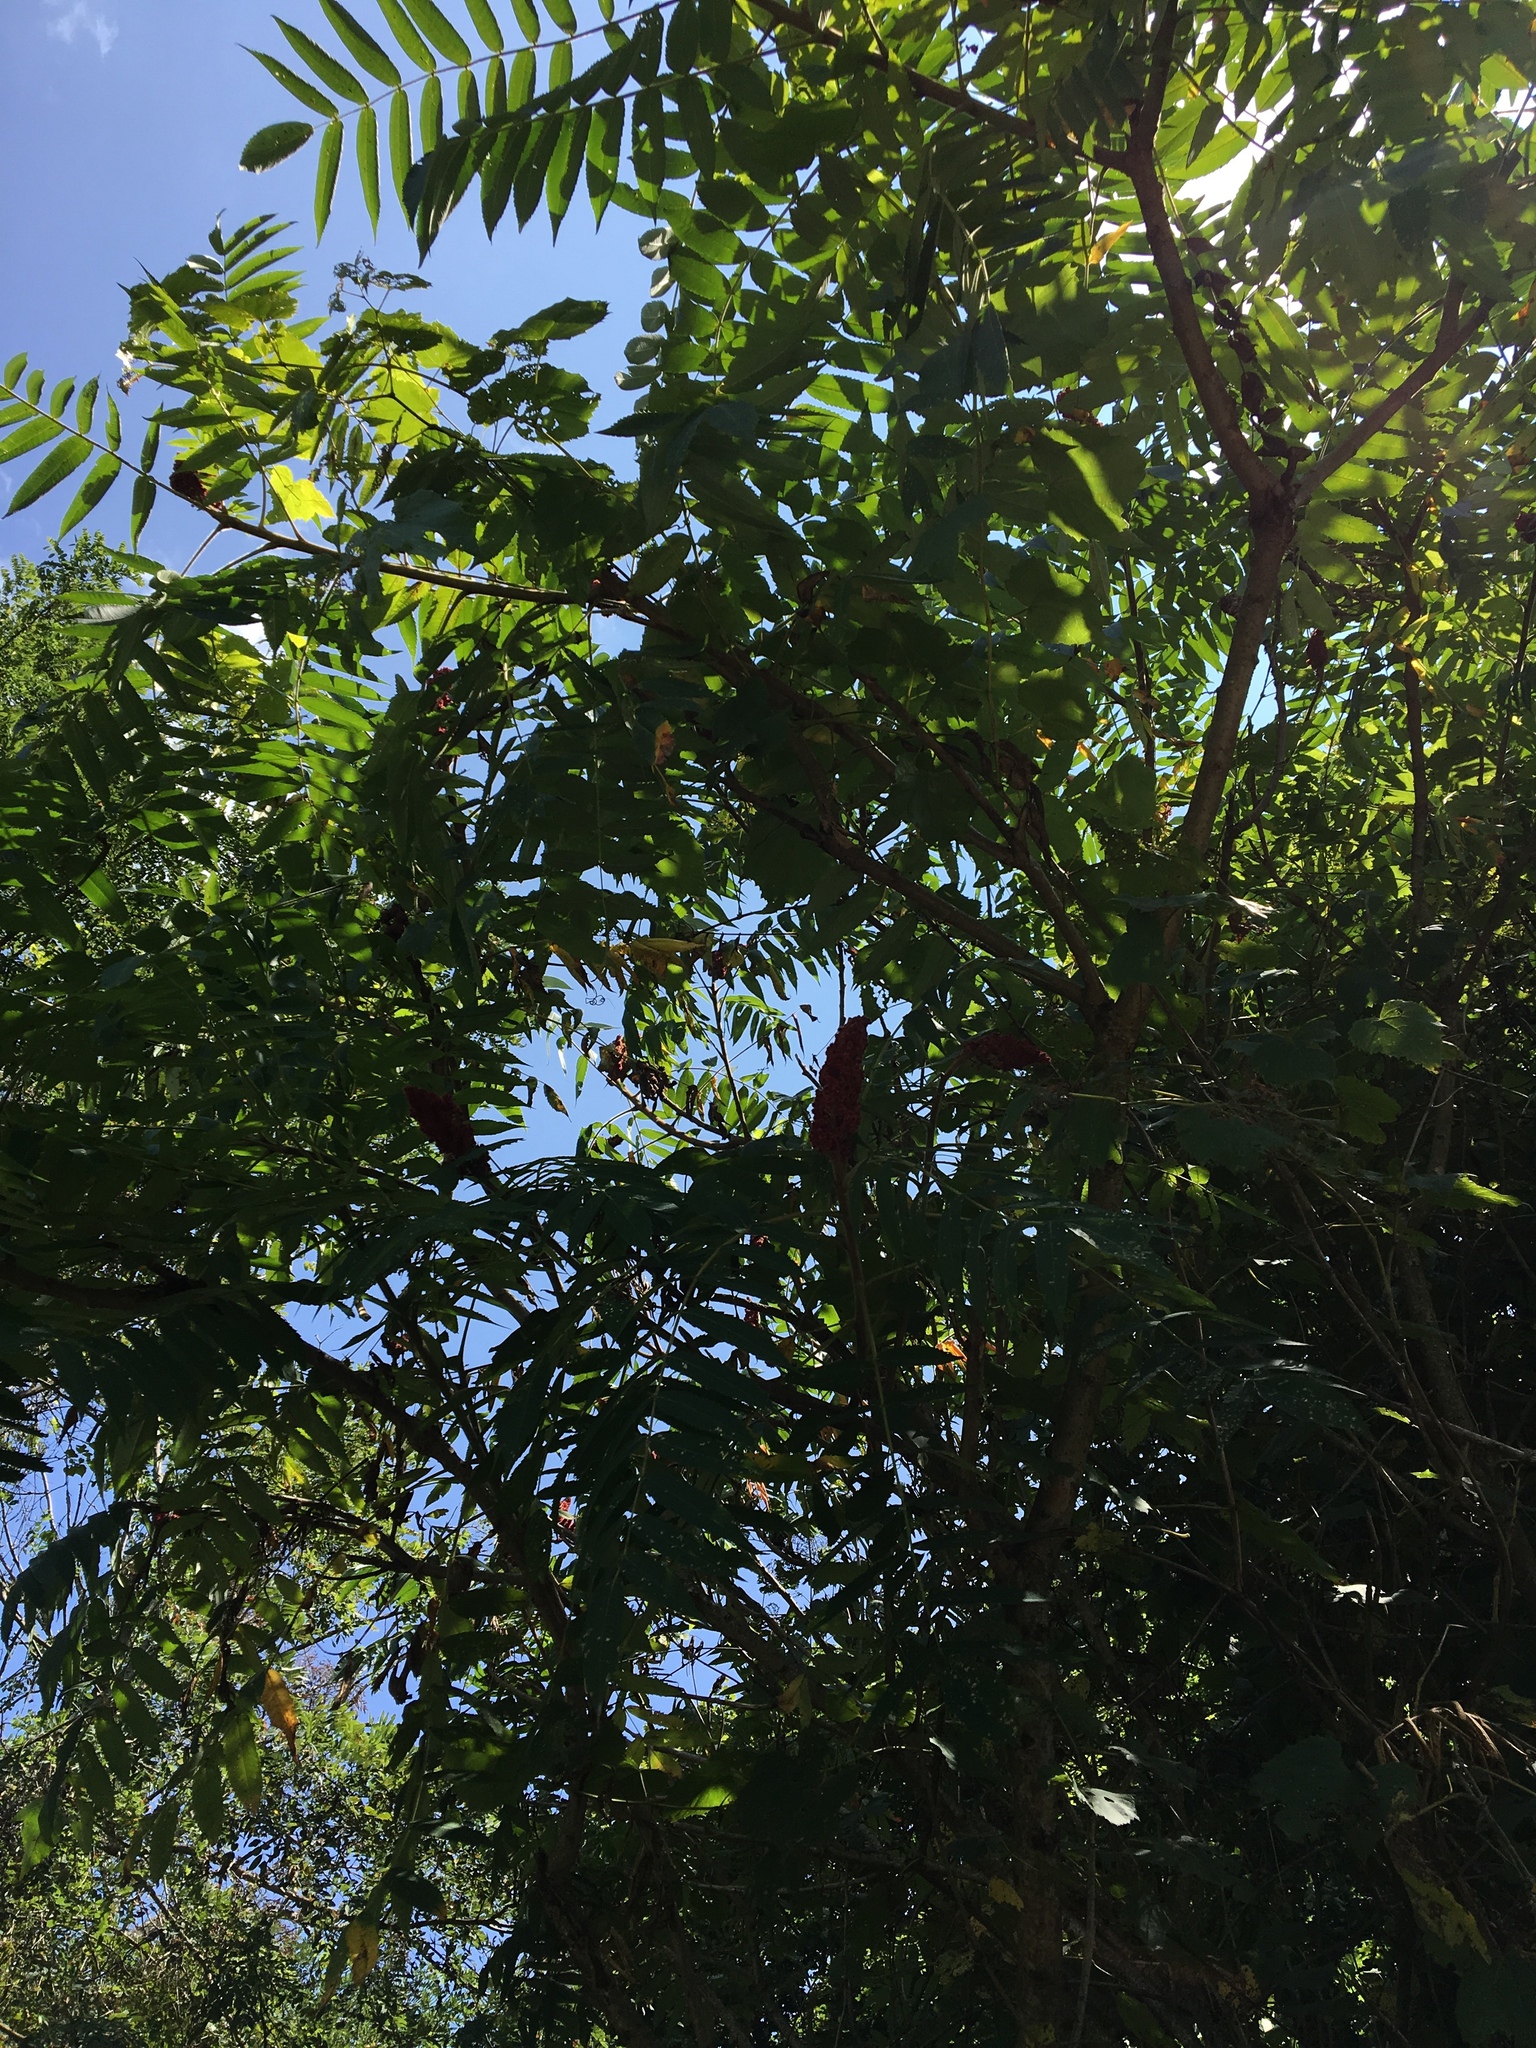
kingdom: Plantae
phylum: Tracheophyta
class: Magnoliopsida
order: Sapindales
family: Anacardiaceae
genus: Rhus
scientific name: Rhus typhina
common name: Staghorn sumac
